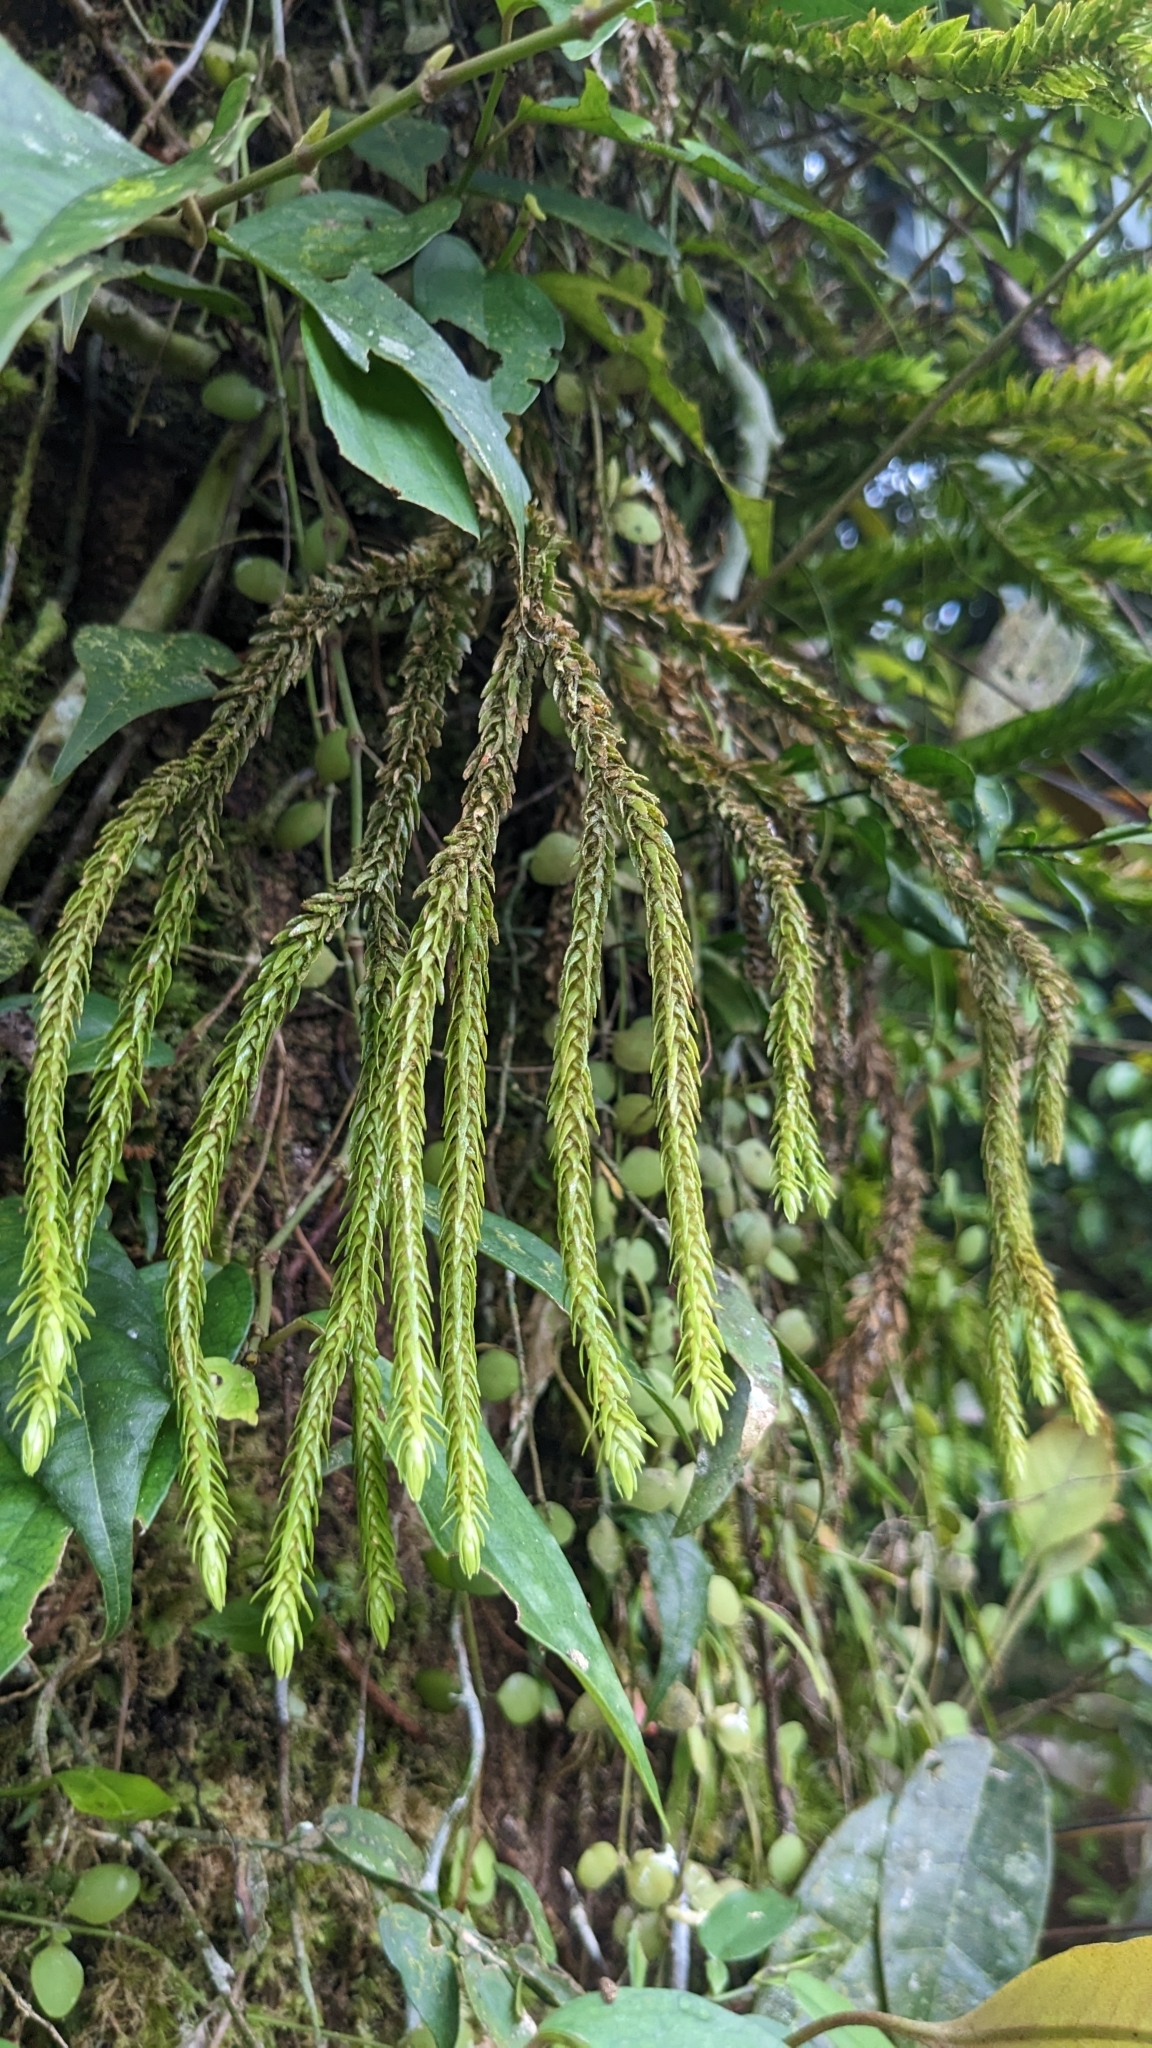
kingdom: Plantae
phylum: Tracheophyta
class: Lycopodiopsida
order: Lycopodiales
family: Lycopodiaceae
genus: Phlegmariurus
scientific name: Phlegmariurus fordii
